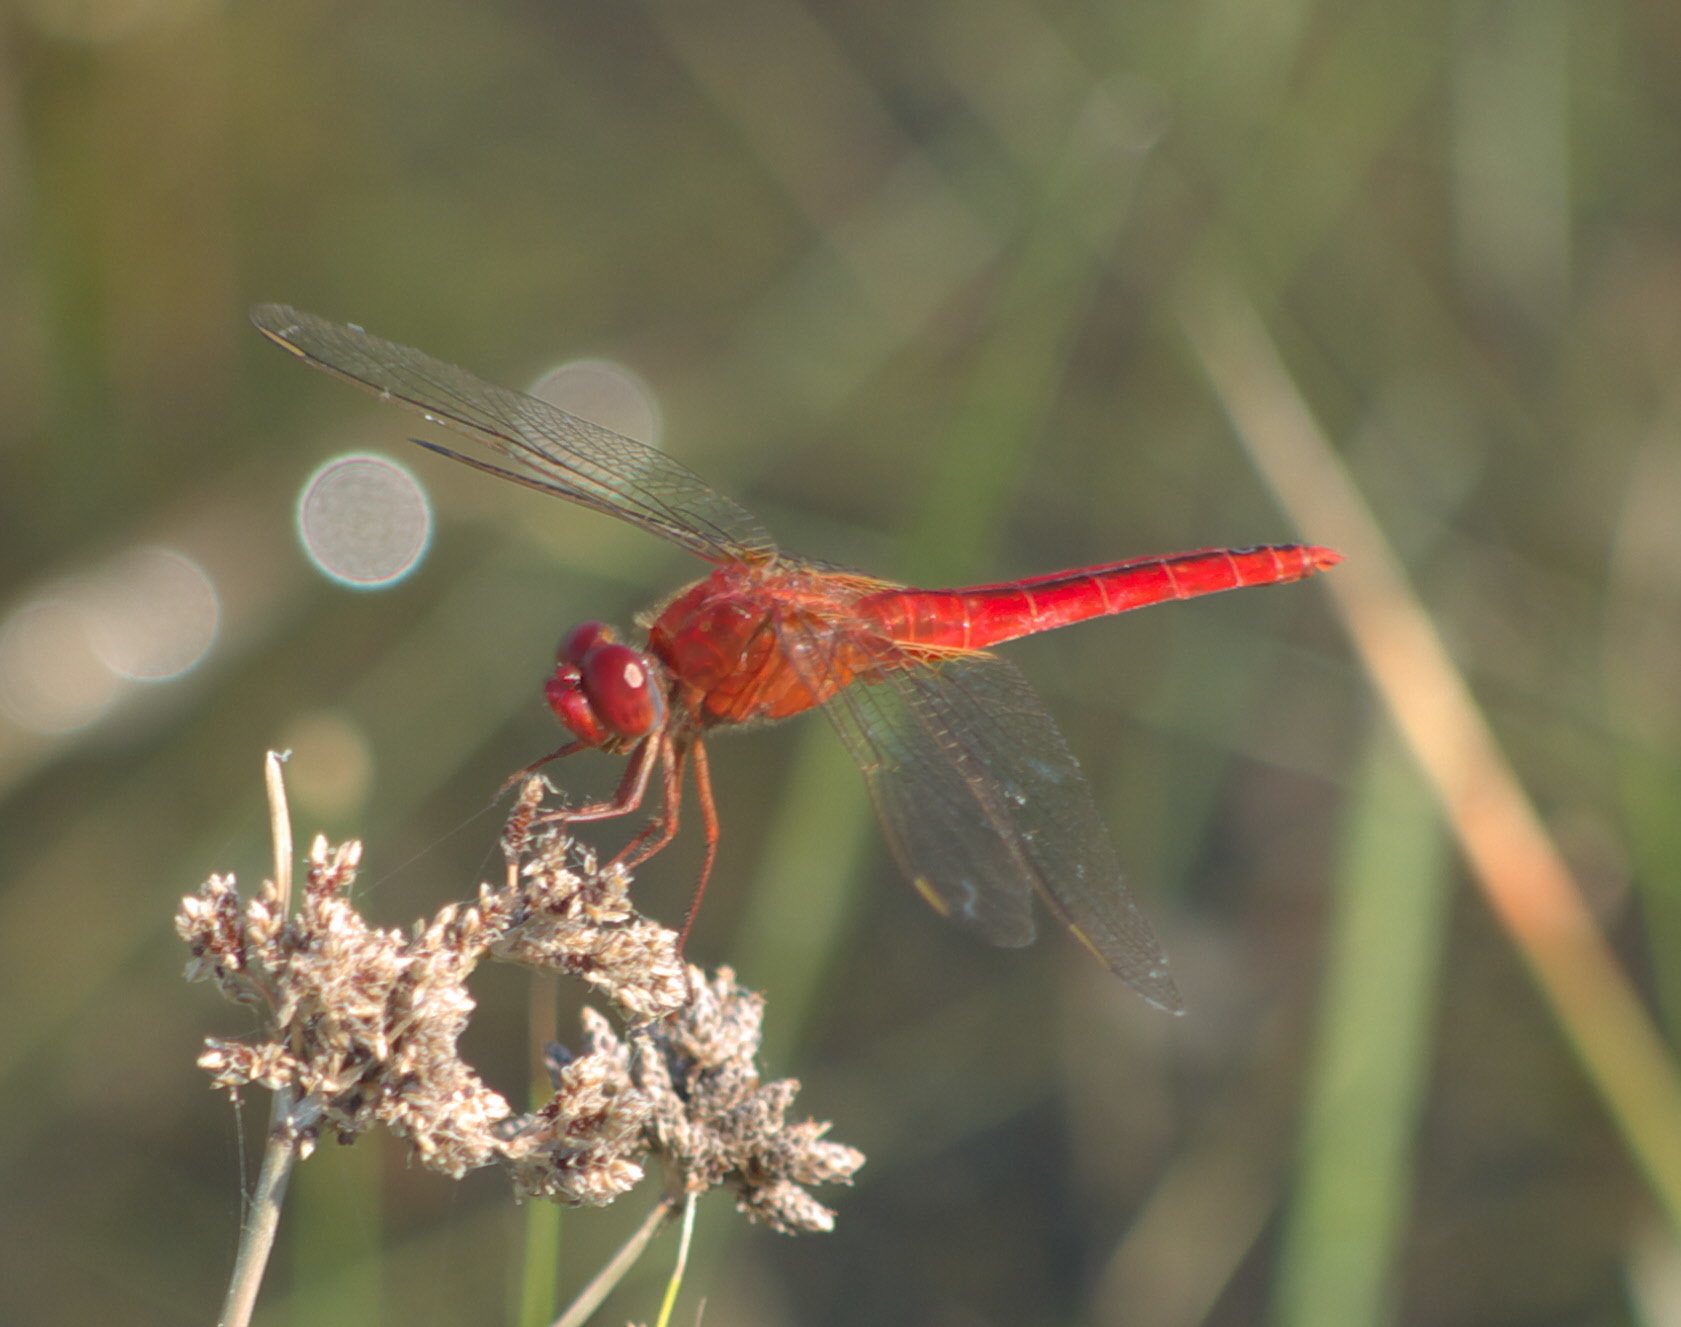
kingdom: Animalia
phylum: Arthropoda
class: Insecta
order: Odonata
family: Libellulidae
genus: Crocothemis
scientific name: Crocothemis servilia
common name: Scarlet skimmer
